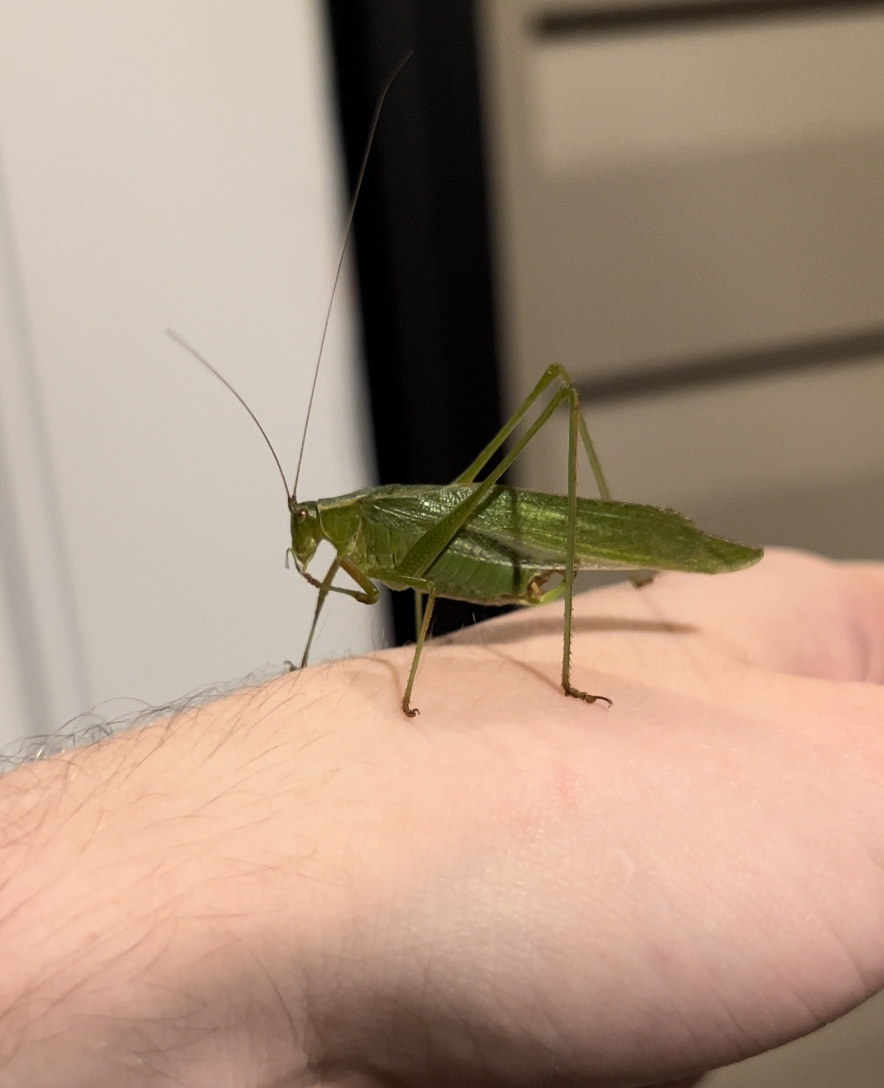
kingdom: Animalia
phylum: Arthropoda
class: Insecta
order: Orthoptera
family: Tettigoniidae
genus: Scudderia
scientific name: Scudderia furcata
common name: Fork-tailed bush katydid
